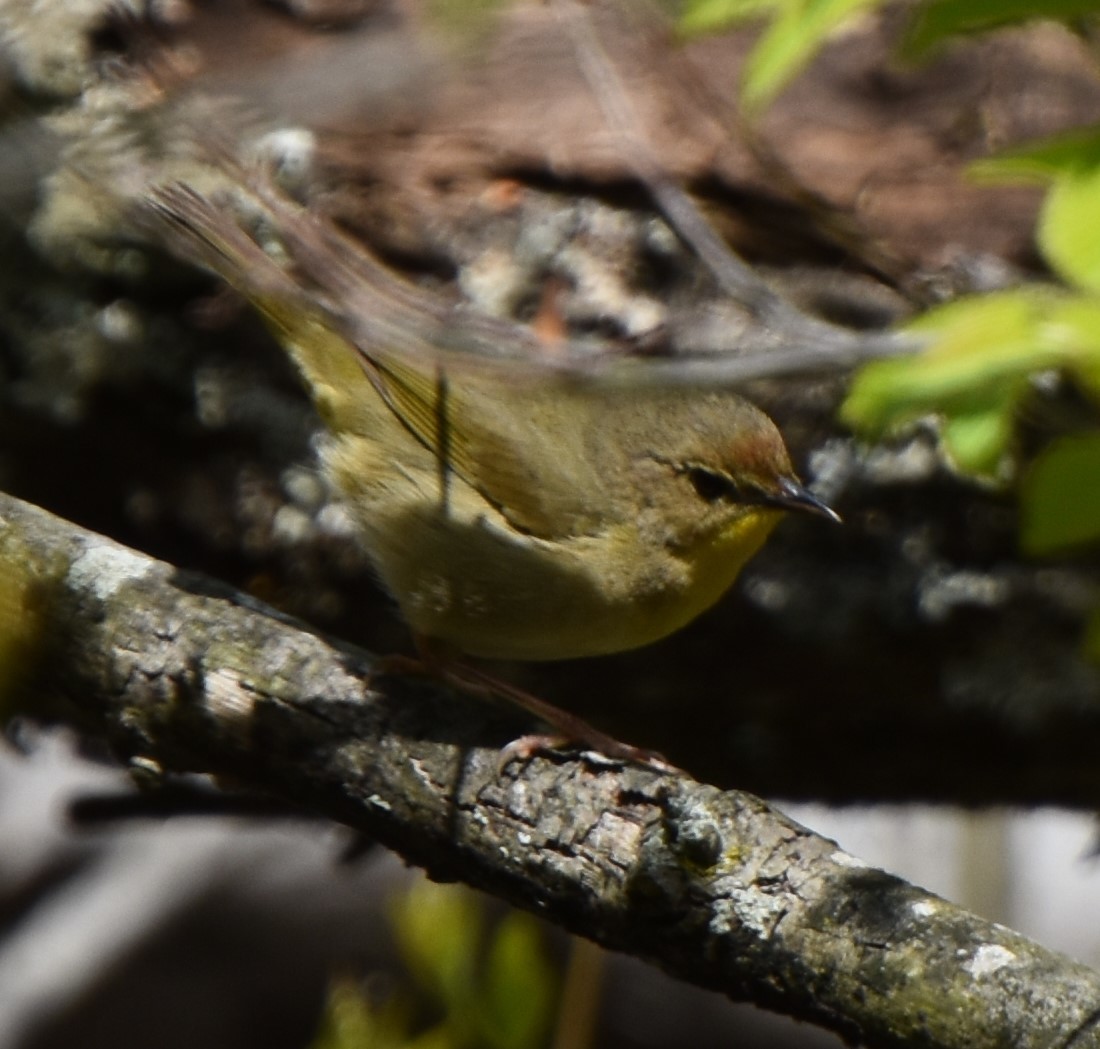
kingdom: Animalia
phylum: Chordata
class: Aves
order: Passeriformes
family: Parulidae
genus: Geothlypis
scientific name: Geothlypis trichas
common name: Common yellowthroat
